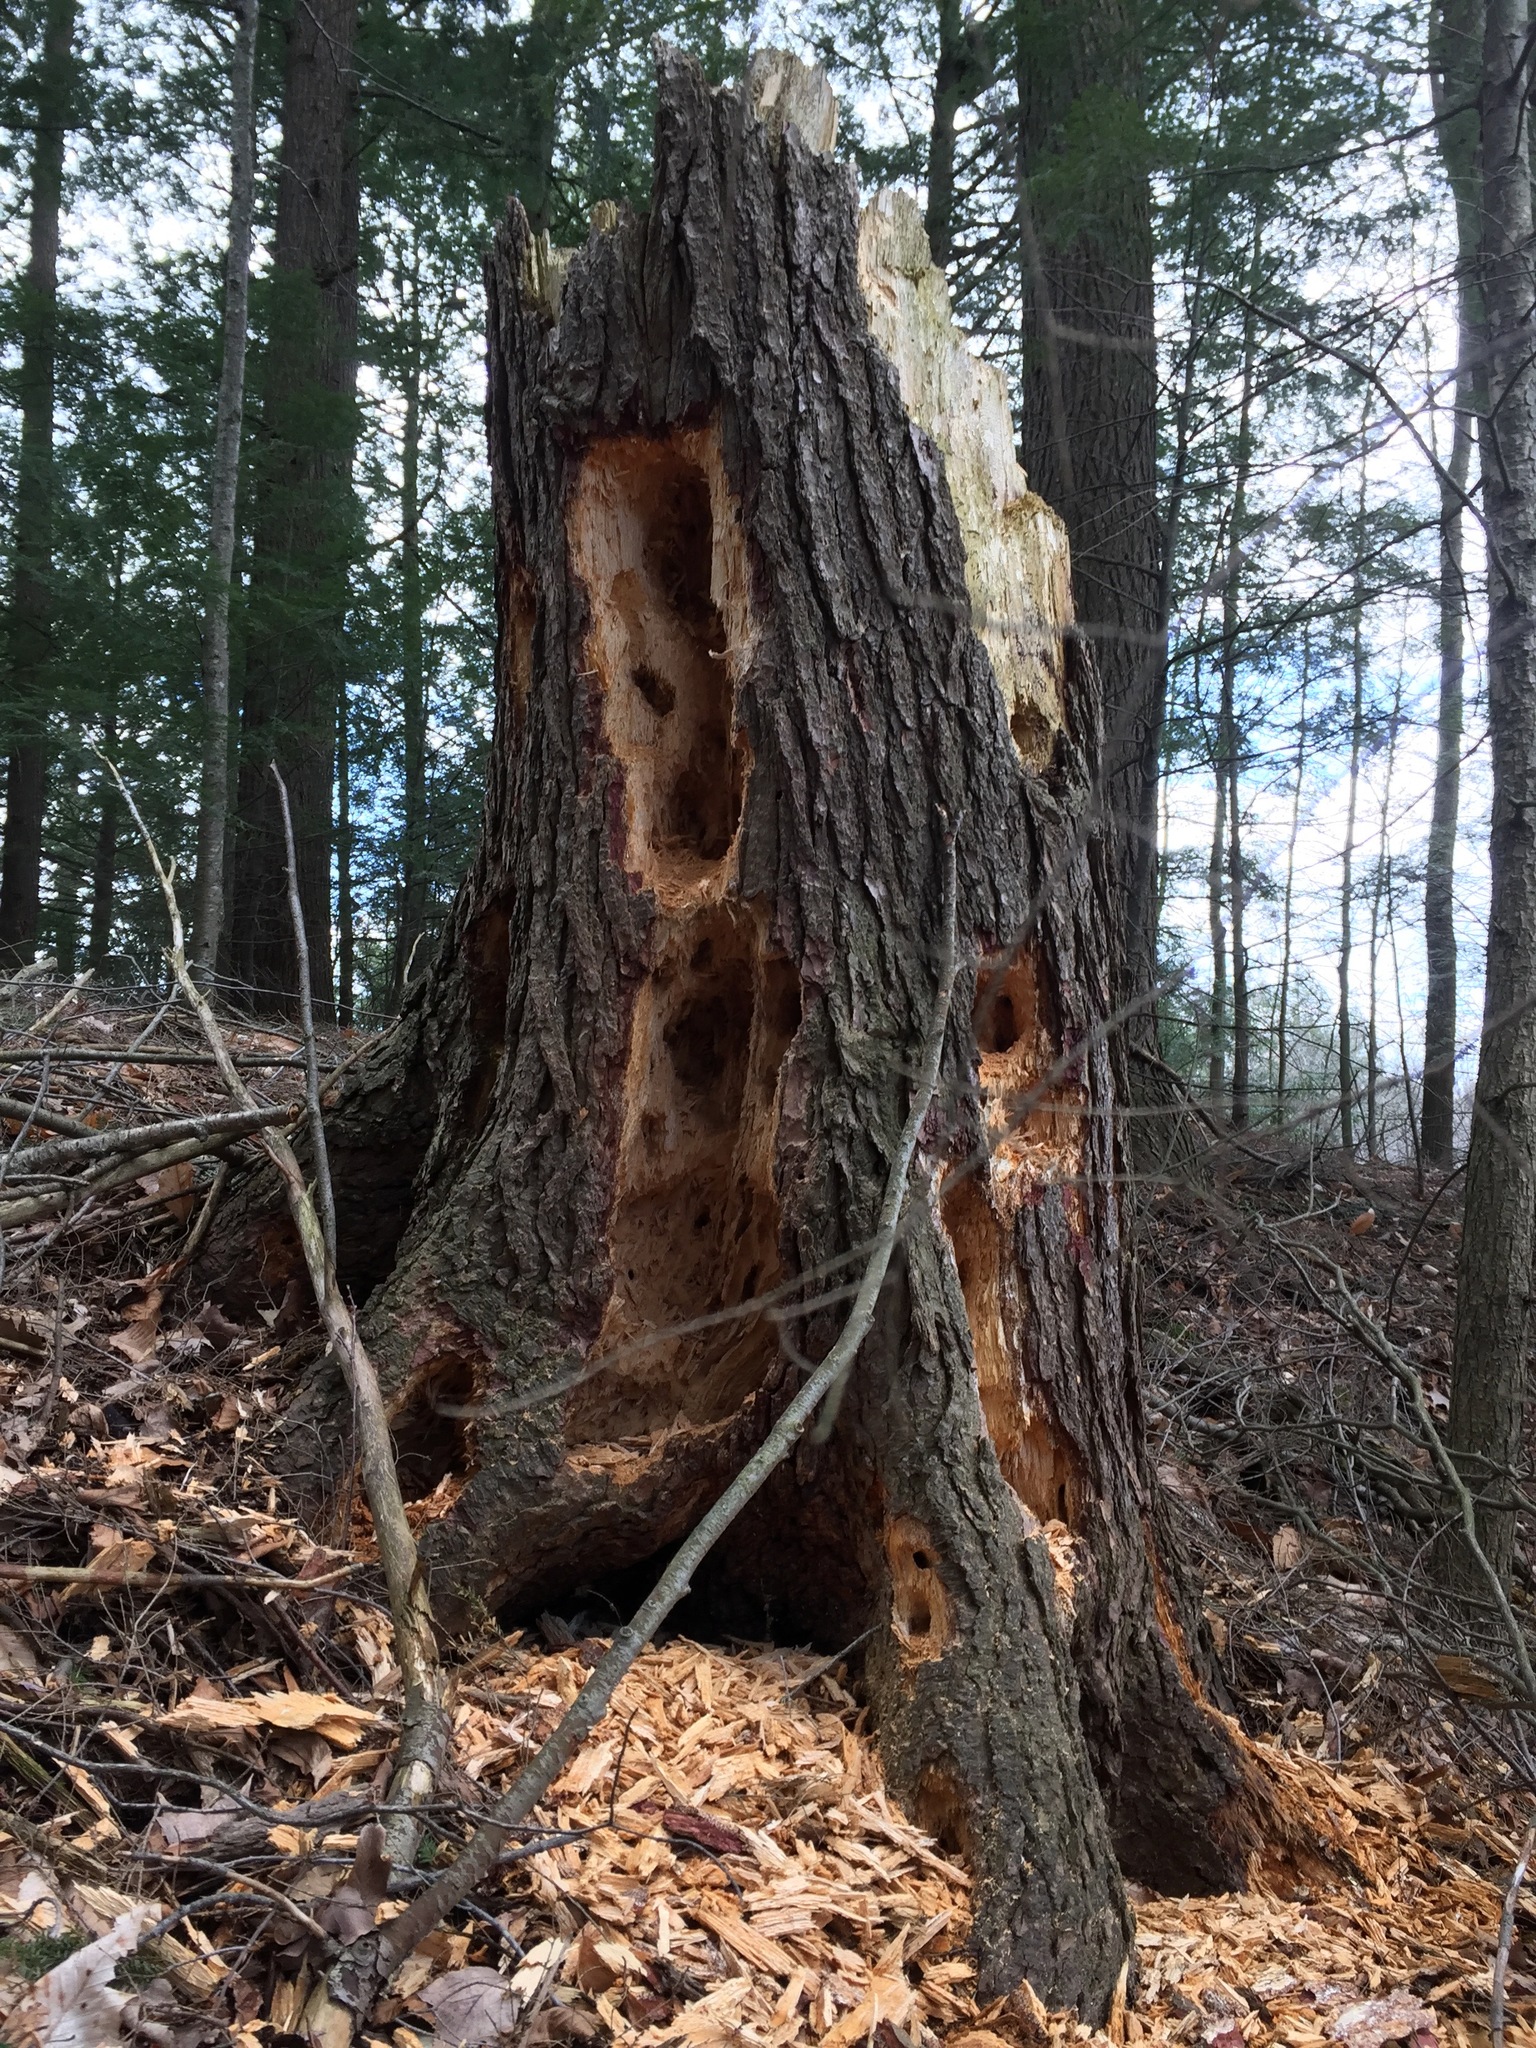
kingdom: Animalia
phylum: Chordata
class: Aves
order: Piciformes
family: Picidae
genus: Dryocopus
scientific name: Dryocopus pileatus
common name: Pileated woodpecker
